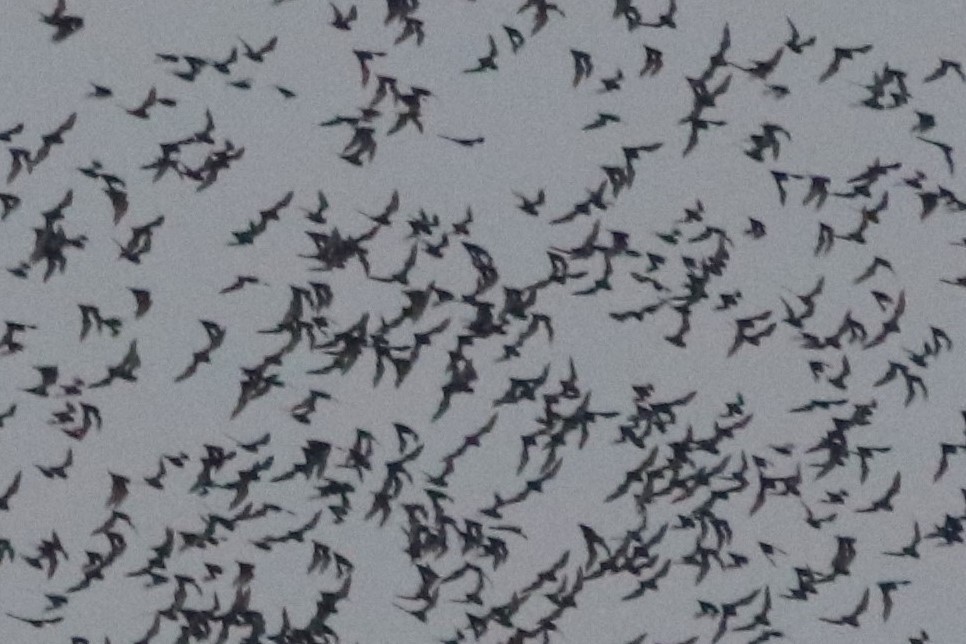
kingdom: Animalia
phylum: Chordata
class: Mammalia
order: Chiroptera
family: Molossidae
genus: Mops
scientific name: Mops
